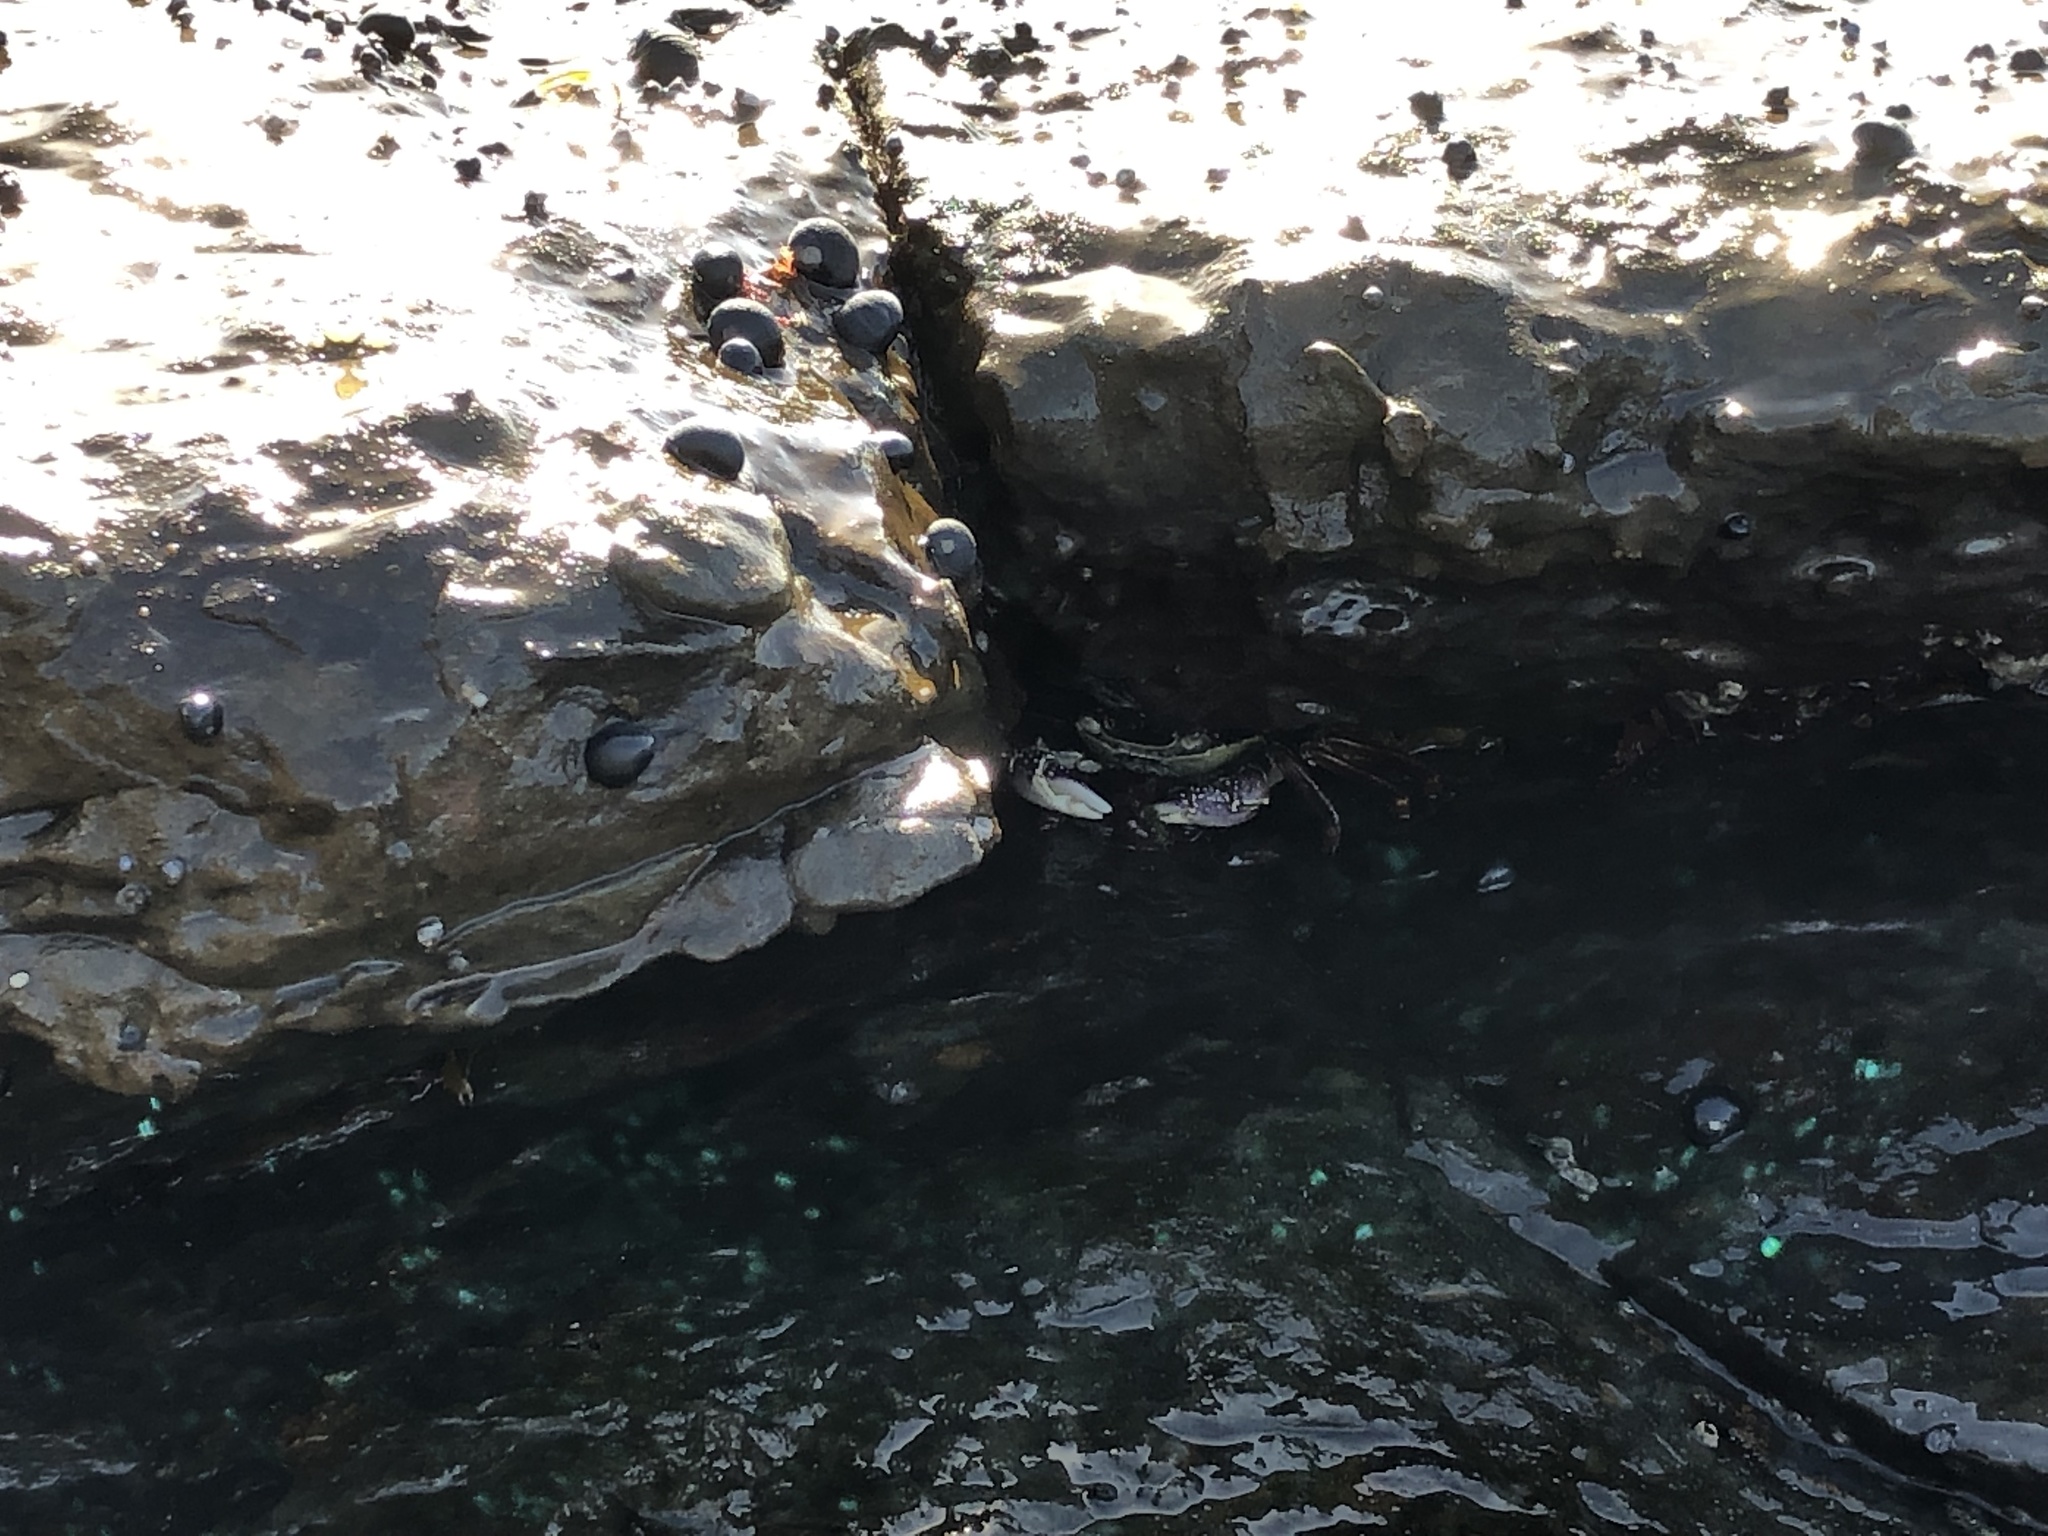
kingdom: Animalia
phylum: Arthropoda
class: Malacostraca
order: Decapoda
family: Grapsidae
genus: Leptograpsus
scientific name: Leptograpsus variegatus
